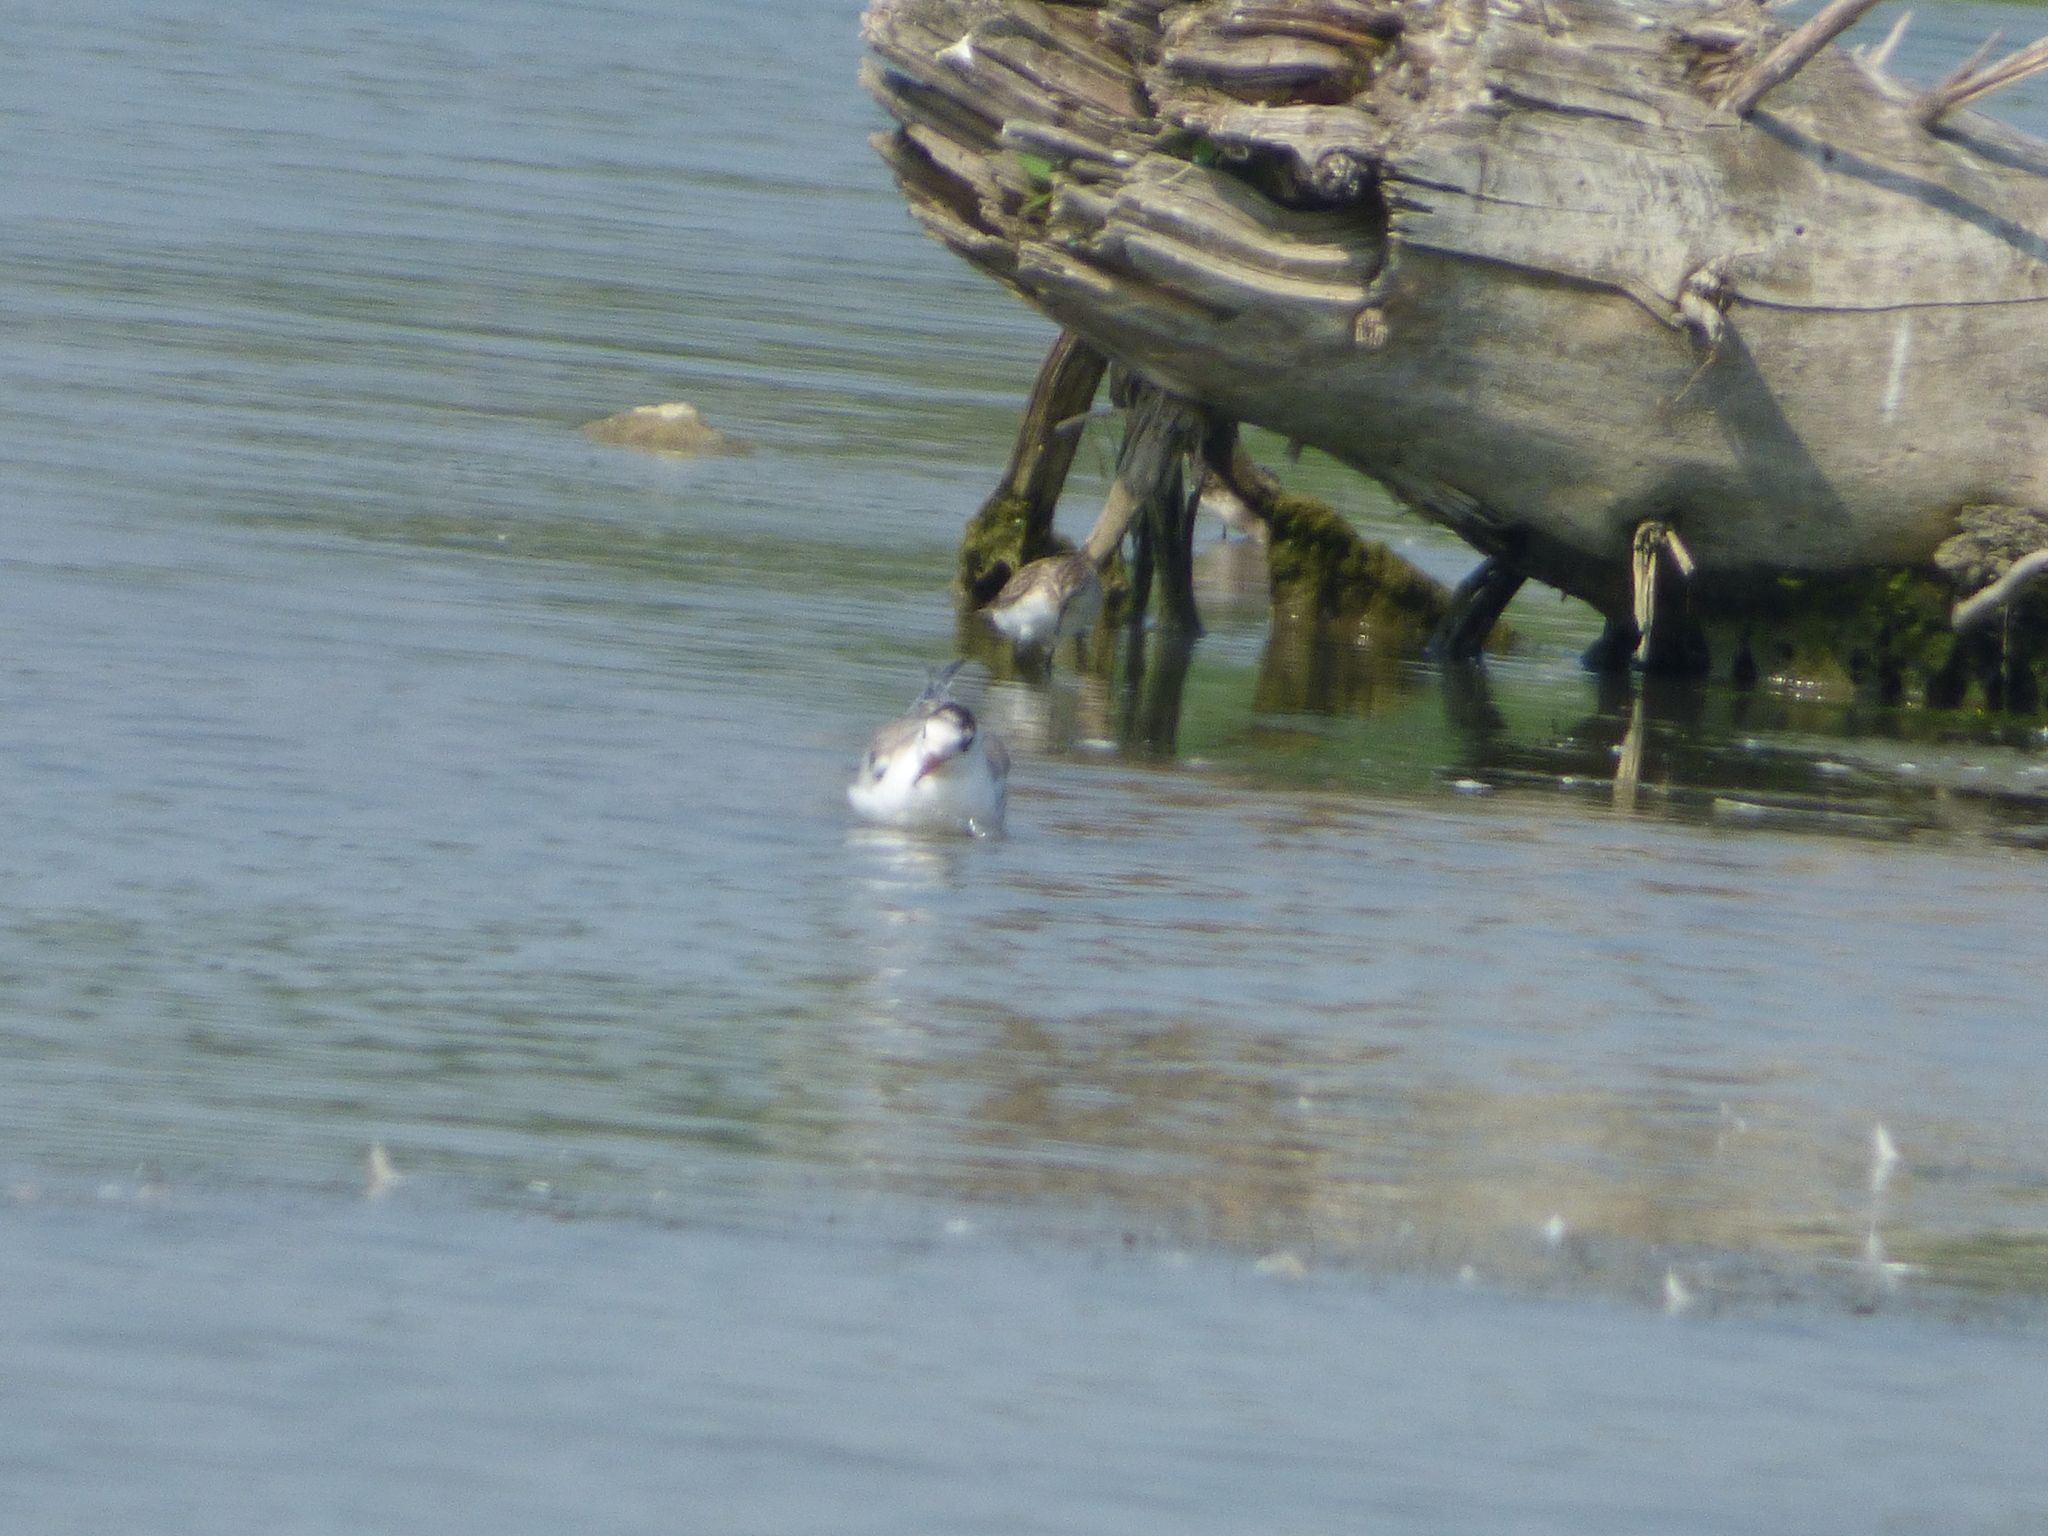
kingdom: Animalia
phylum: Chordata
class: Aves
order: Charadriiformes
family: Laridae
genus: Sterna
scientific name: Sterna hirundo
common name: Common tern
